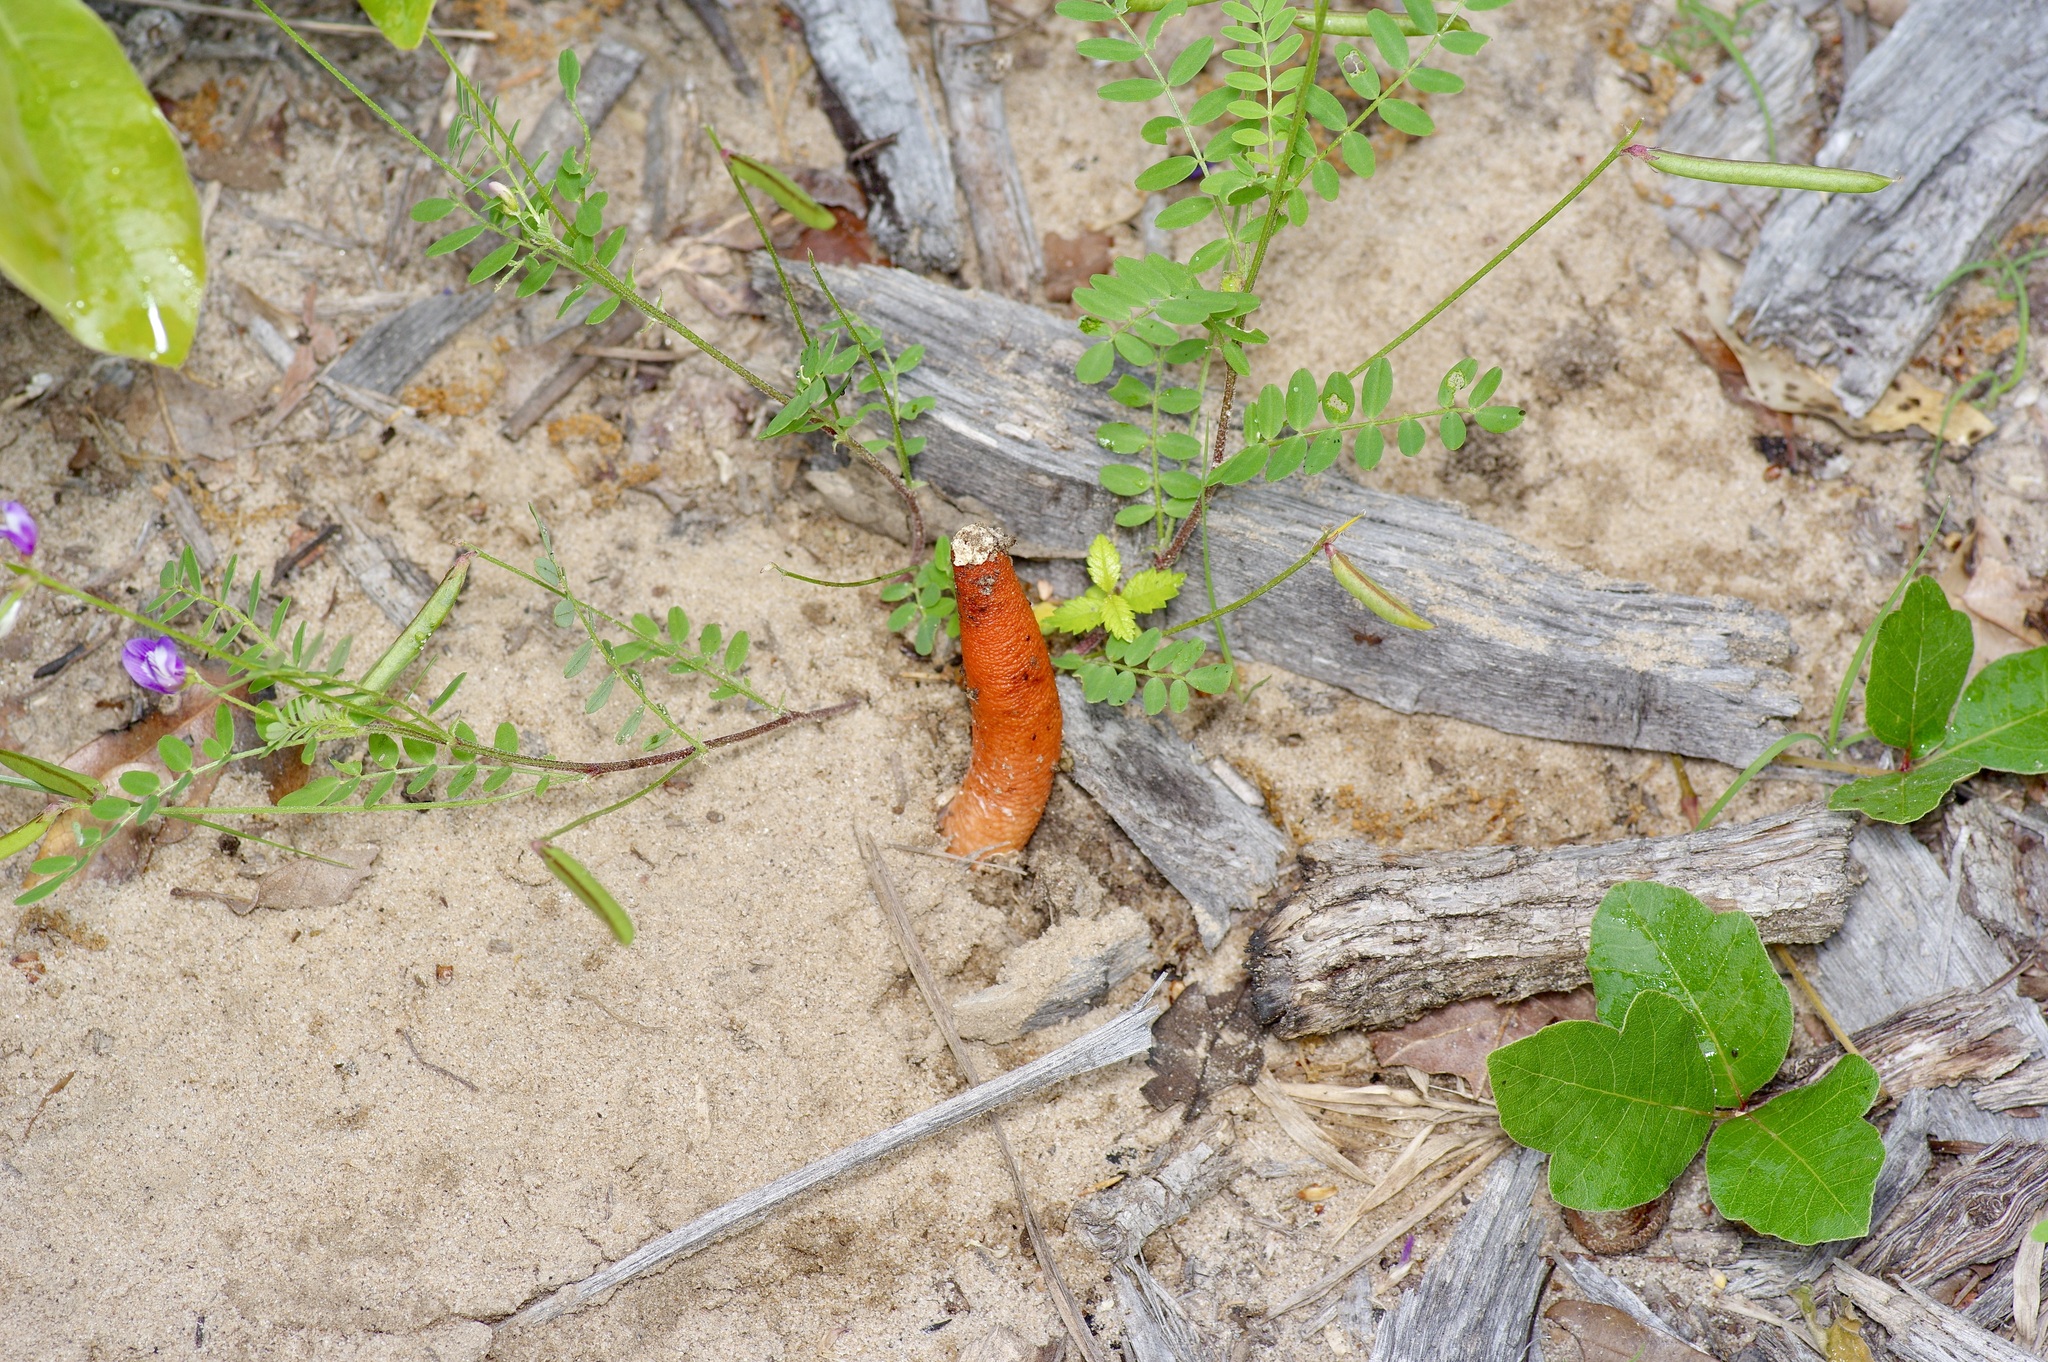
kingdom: Fungi
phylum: Basidiomycota
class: Agaricomycetes
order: Phallales
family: Phallaceae
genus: Mutinus
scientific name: Mutinus elegans
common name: Devil's dipstick
